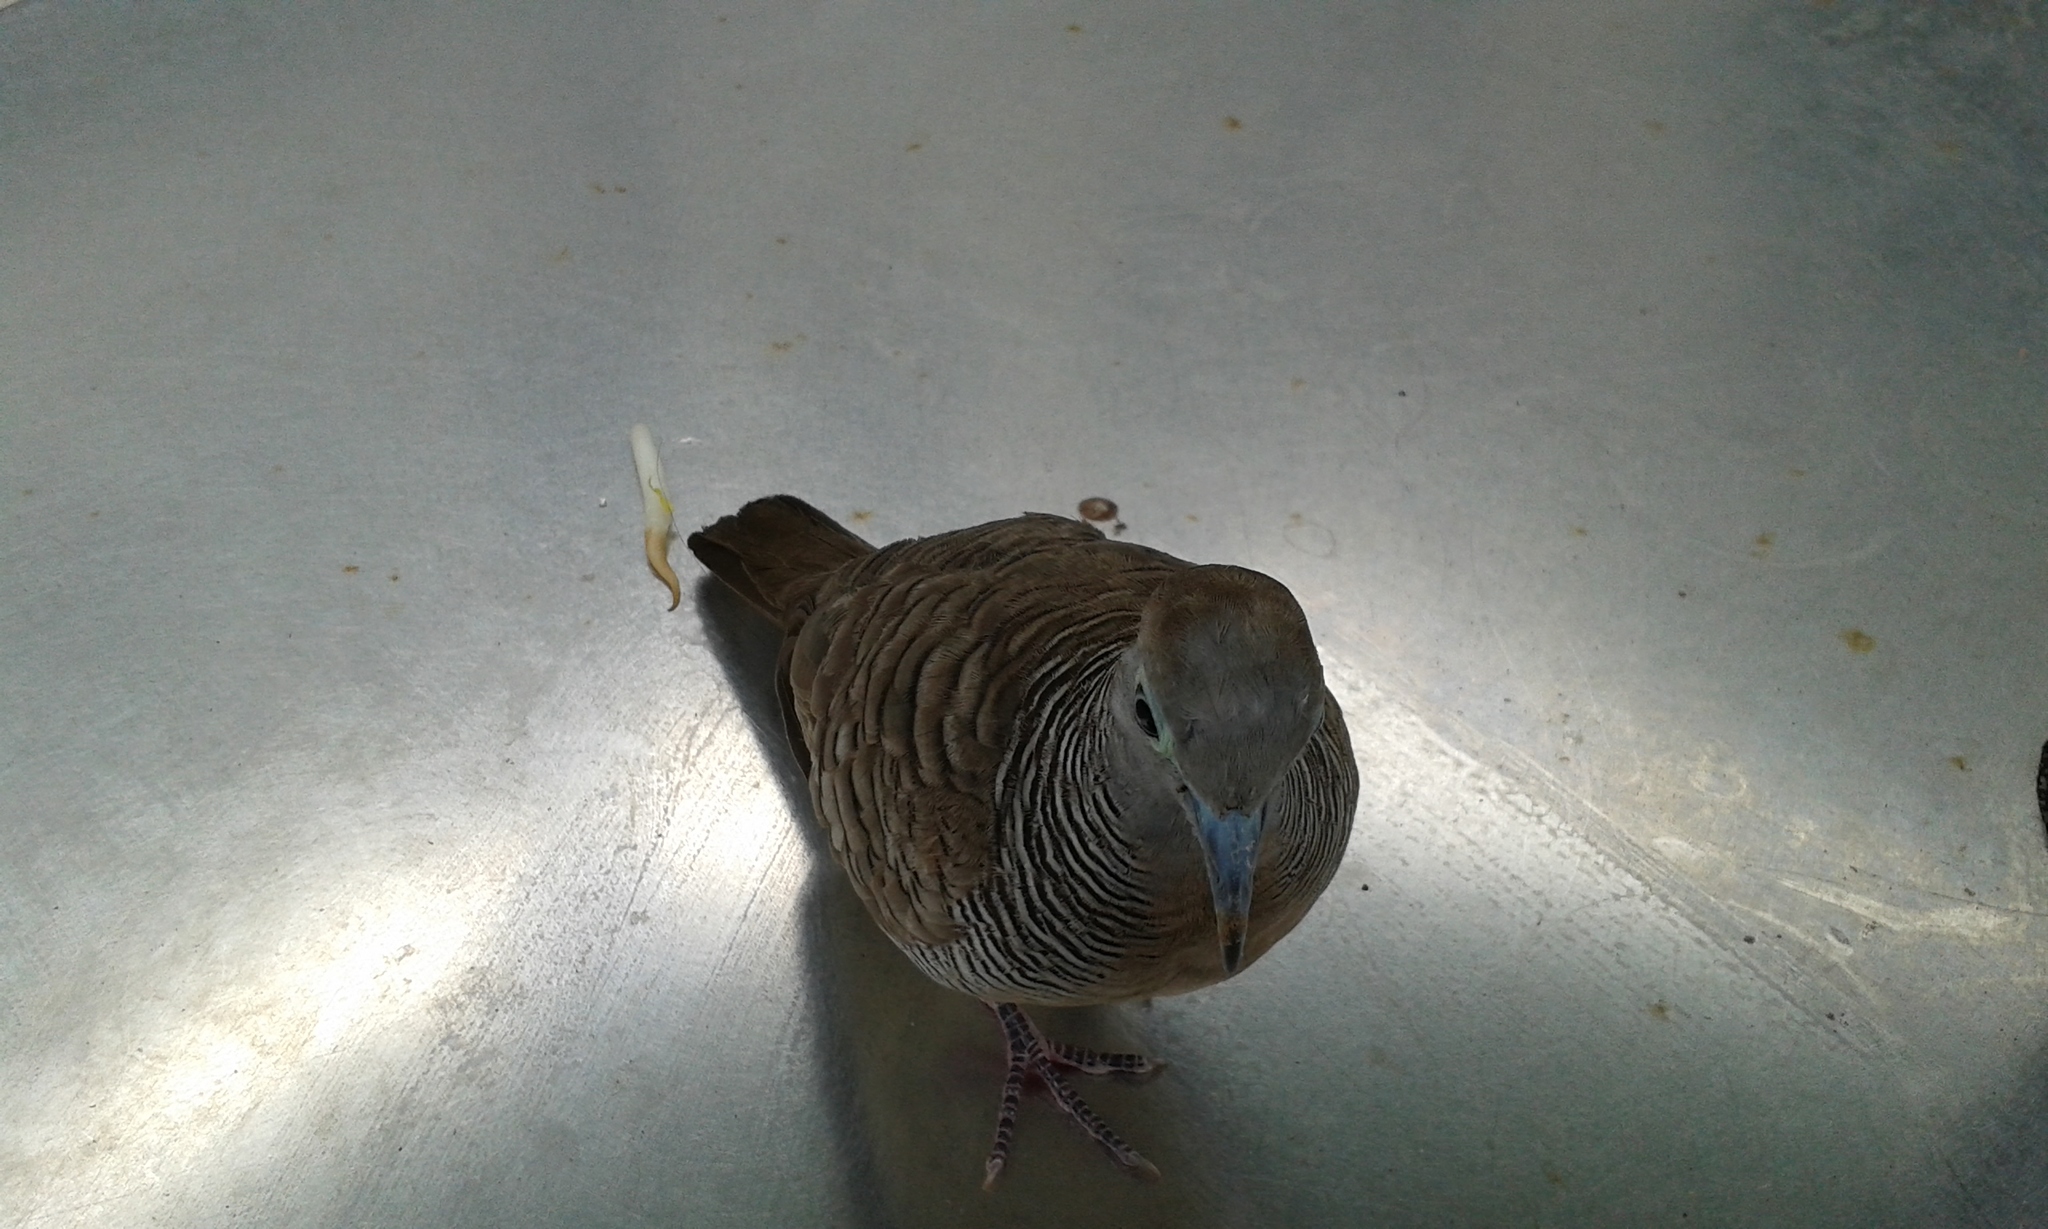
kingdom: Animalia
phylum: Chordata
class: Aves
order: Columbiformes
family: Columbidae
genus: Geopelia
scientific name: Geopelia striata
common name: Zebra dove
